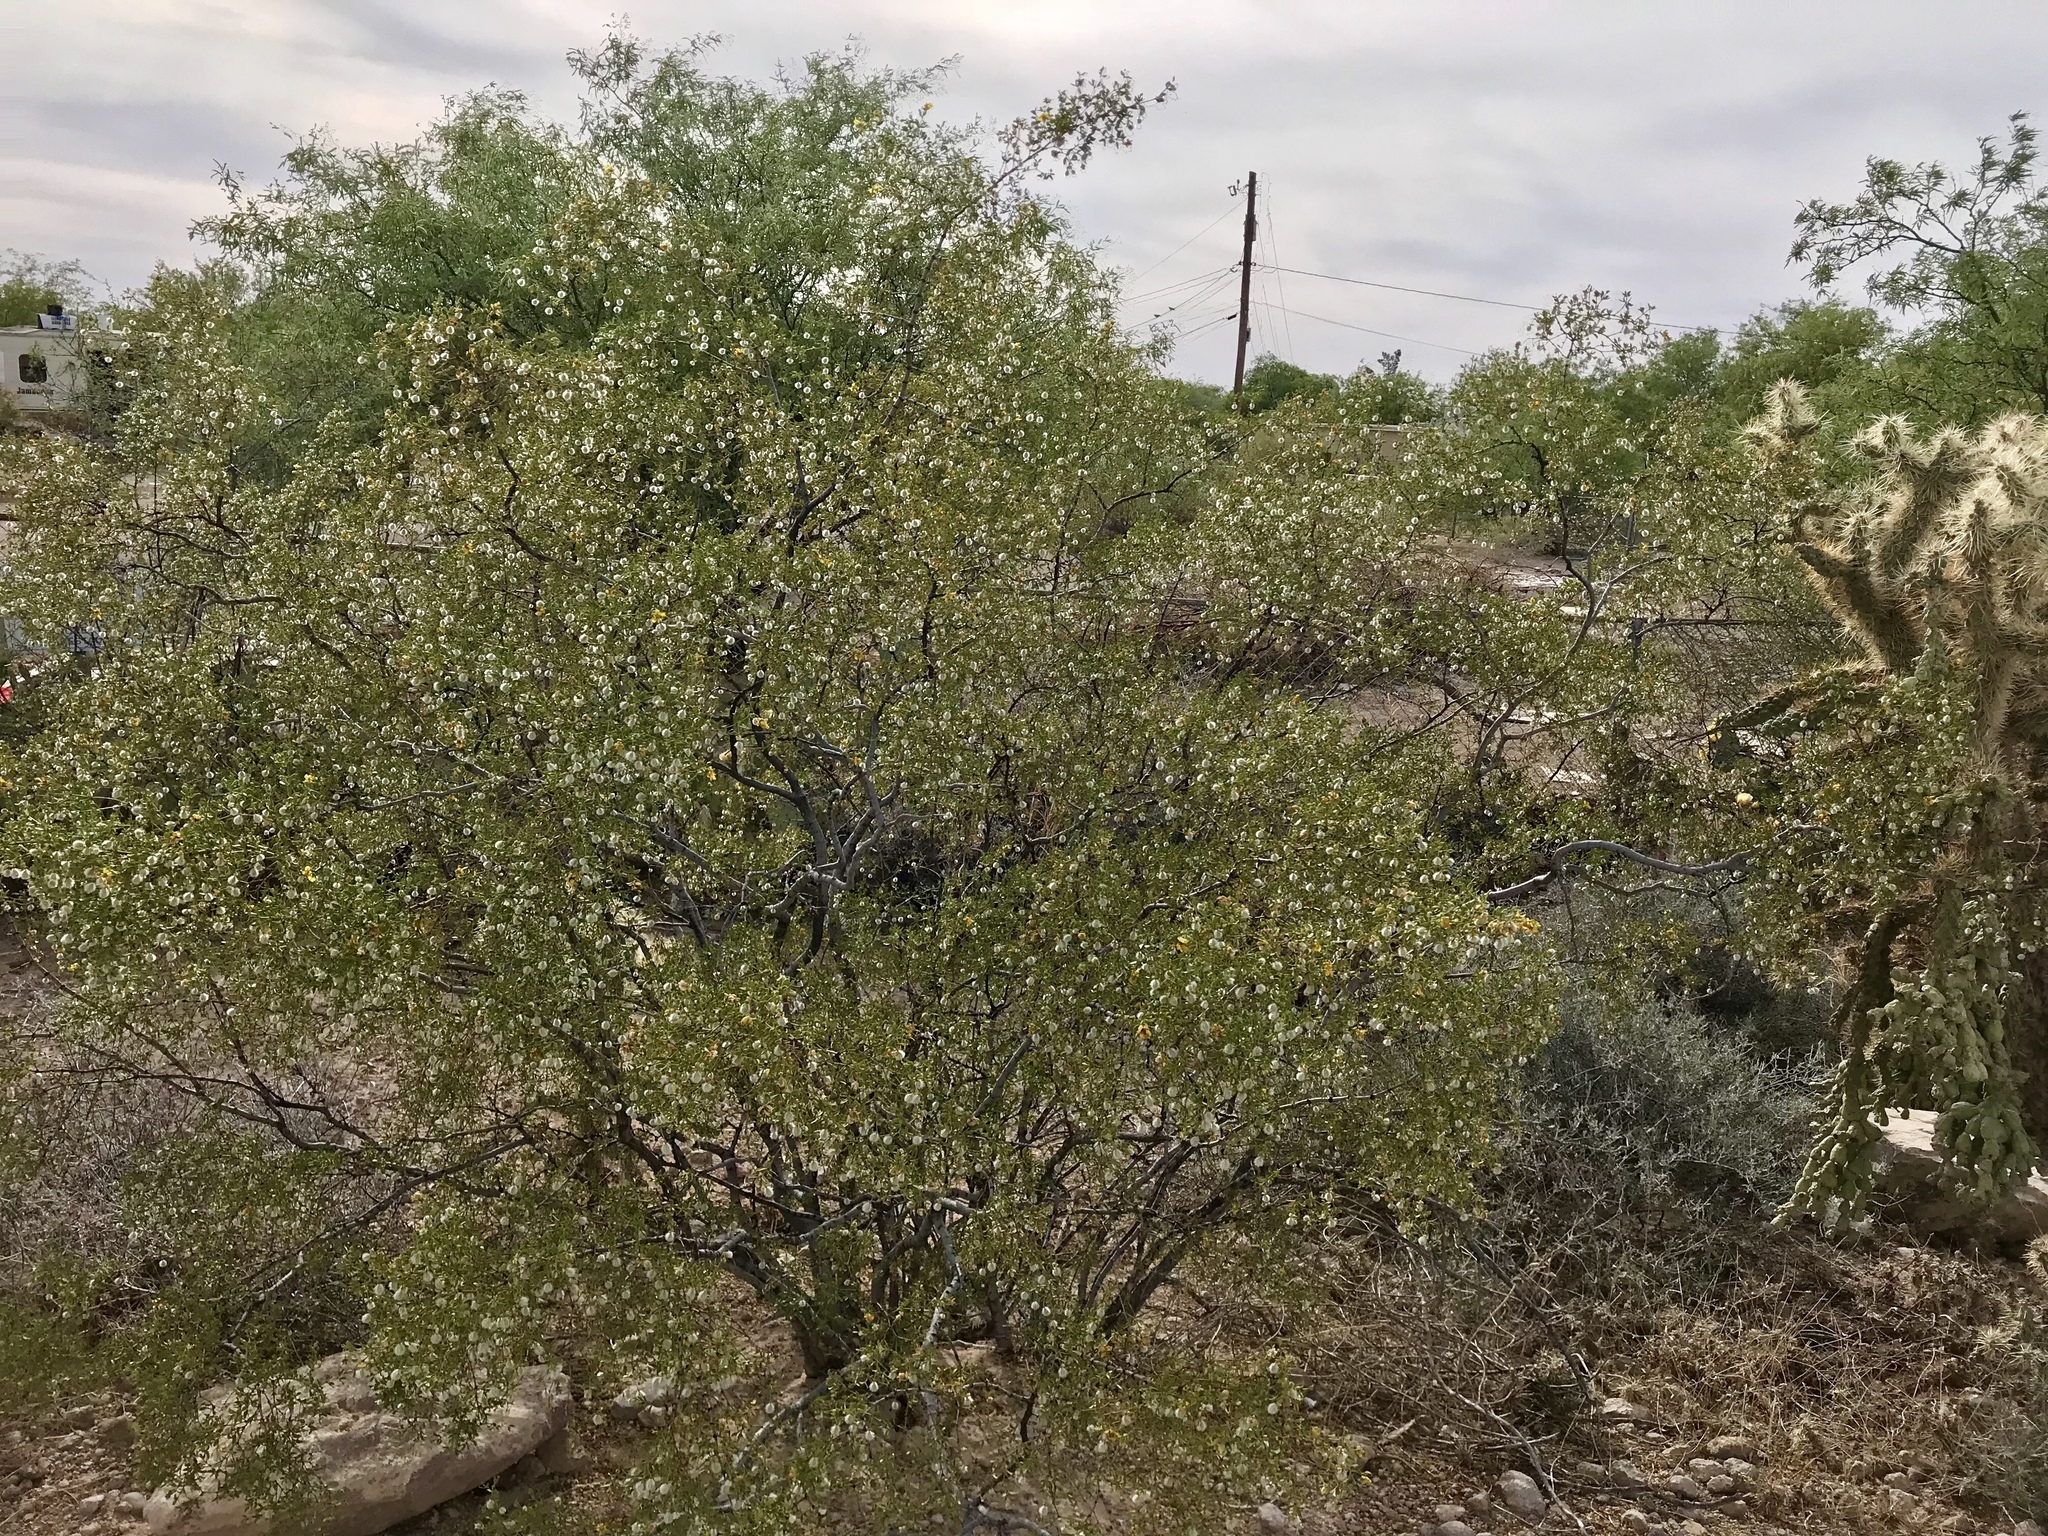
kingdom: Plantae
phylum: Tracheophyta
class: Magnoliopsida
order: Zygophyllales
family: Zygophyllaceae
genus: Larrea
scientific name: Larrea tridentata
